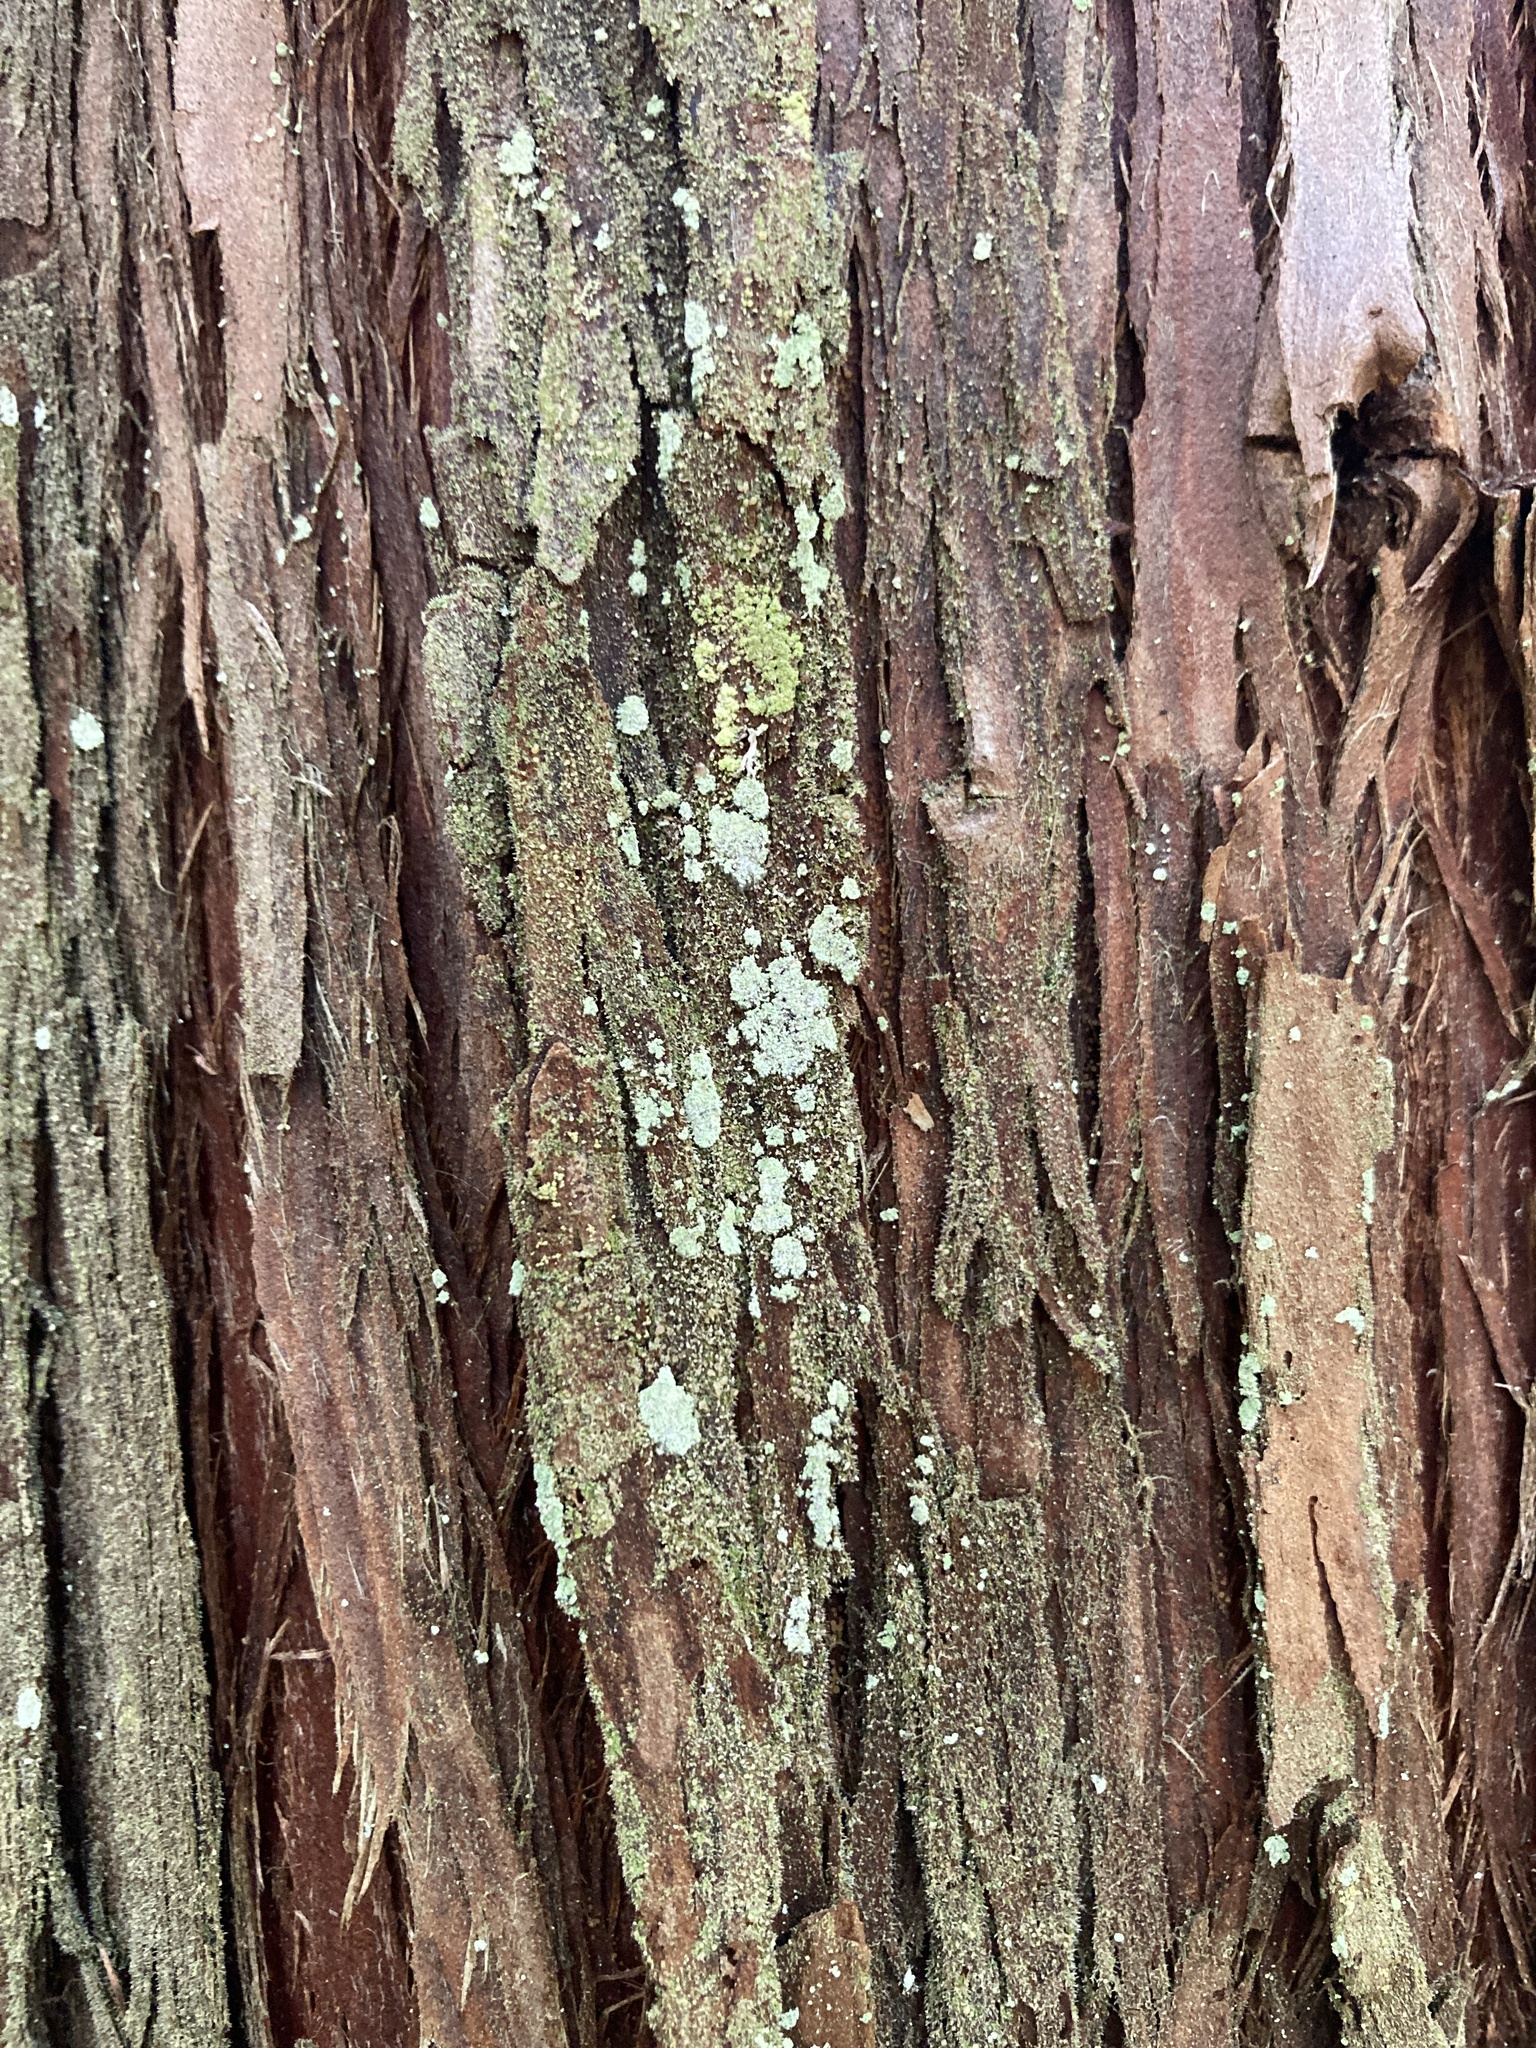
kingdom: Plantae
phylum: Tracheophyta
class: Pinopsida
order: Pinales
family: Cupressaceae
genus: Chamaecyparis
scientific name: Chamaecyparis thyoides
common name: Atlantic white cedar
